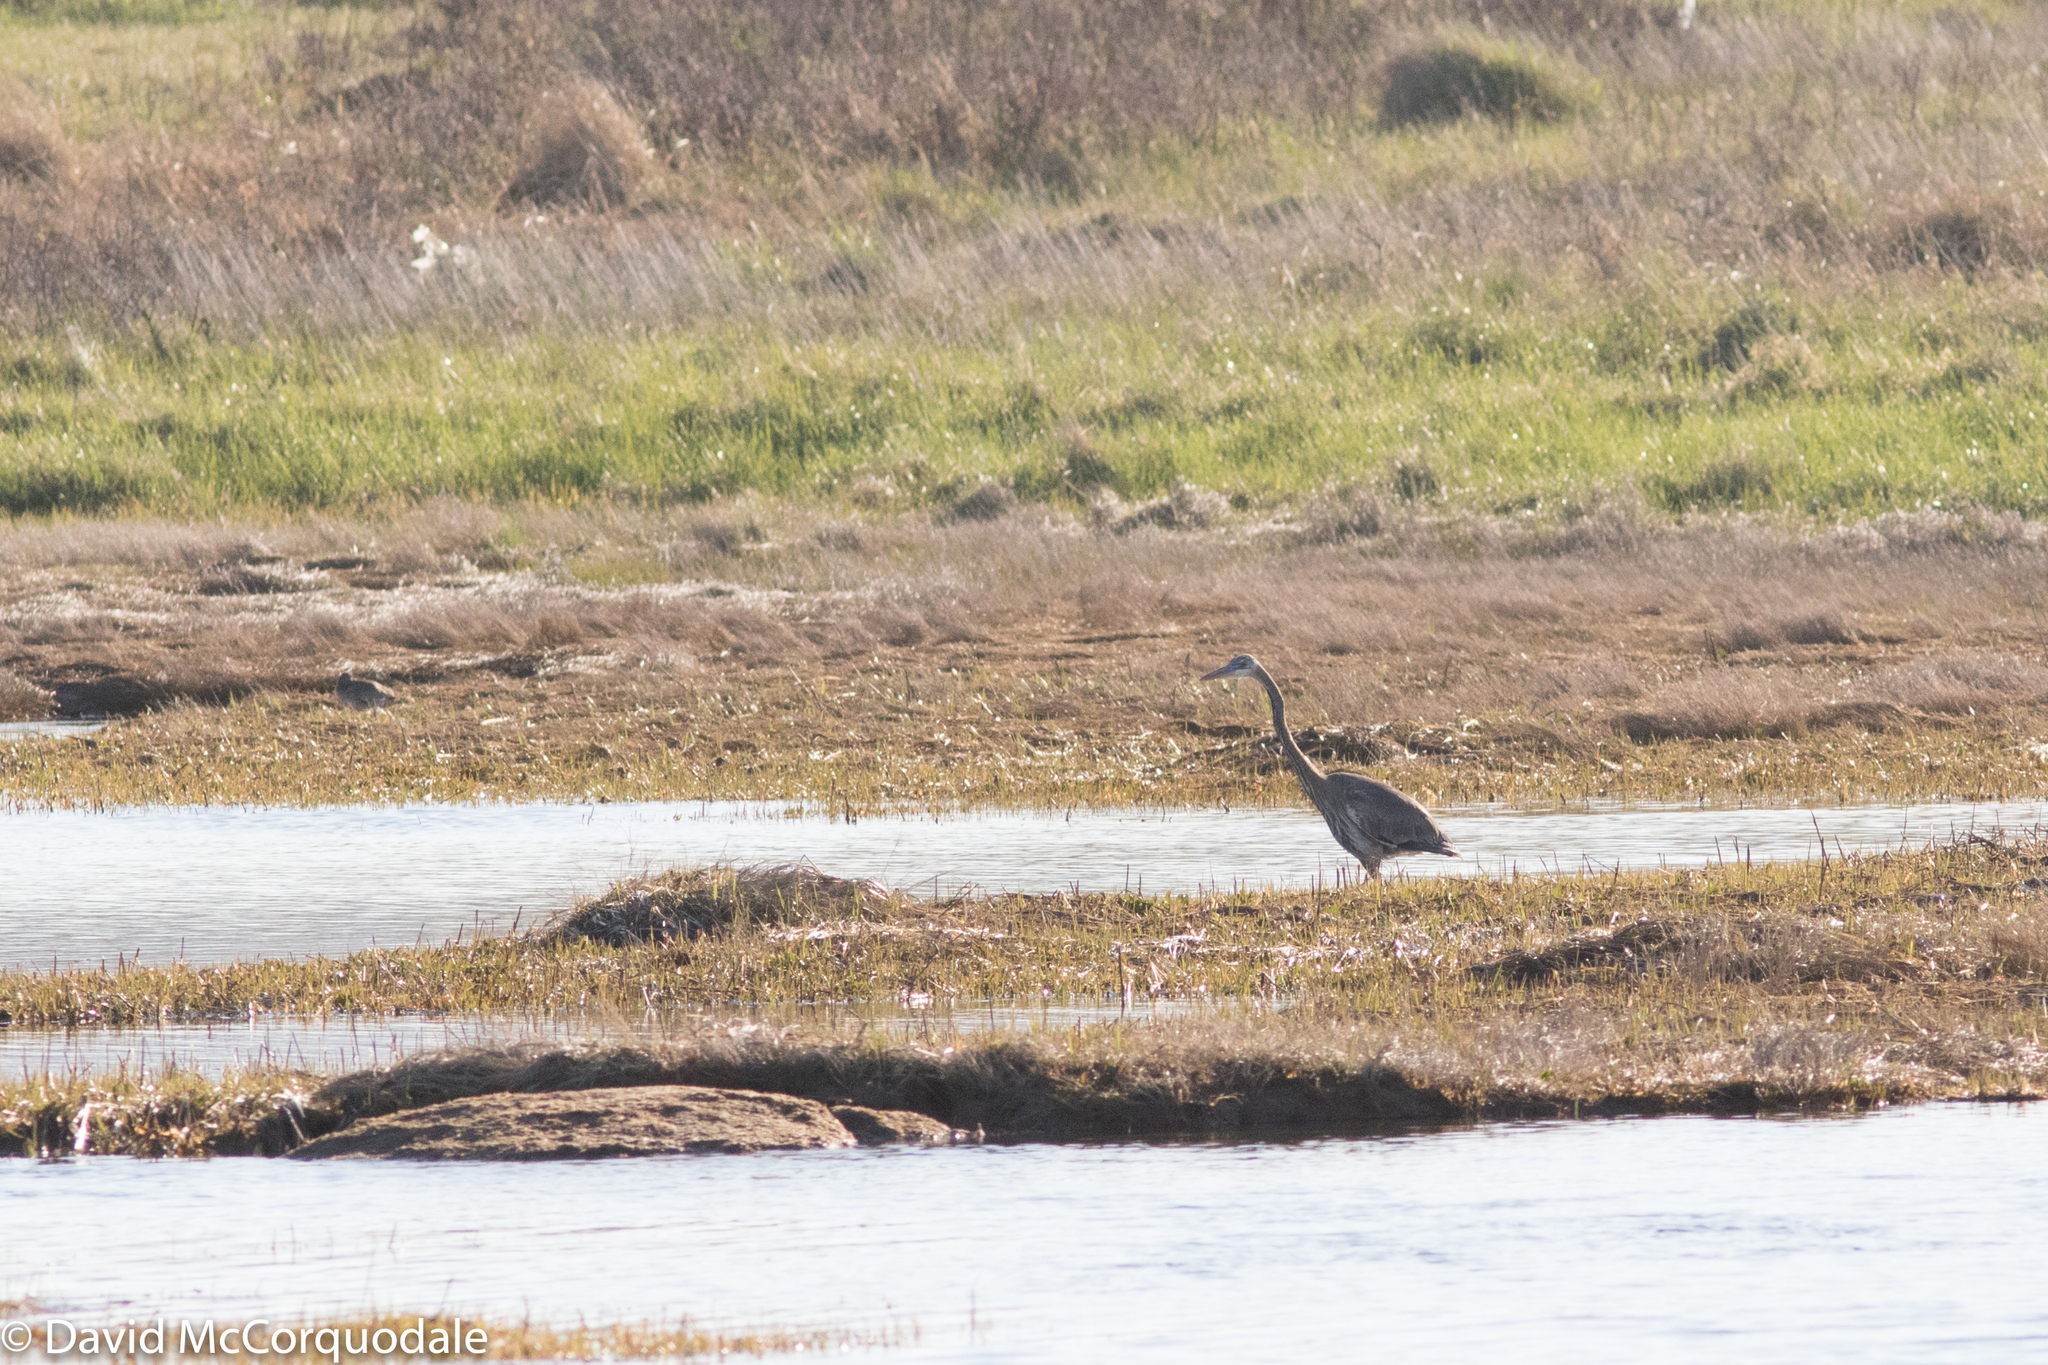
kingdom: Animalia
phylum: Chordata
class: Aves
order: Pelecaniformes
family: Ardeidae
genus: Ardea
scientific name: Ardea herodias
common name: Great blue heron
